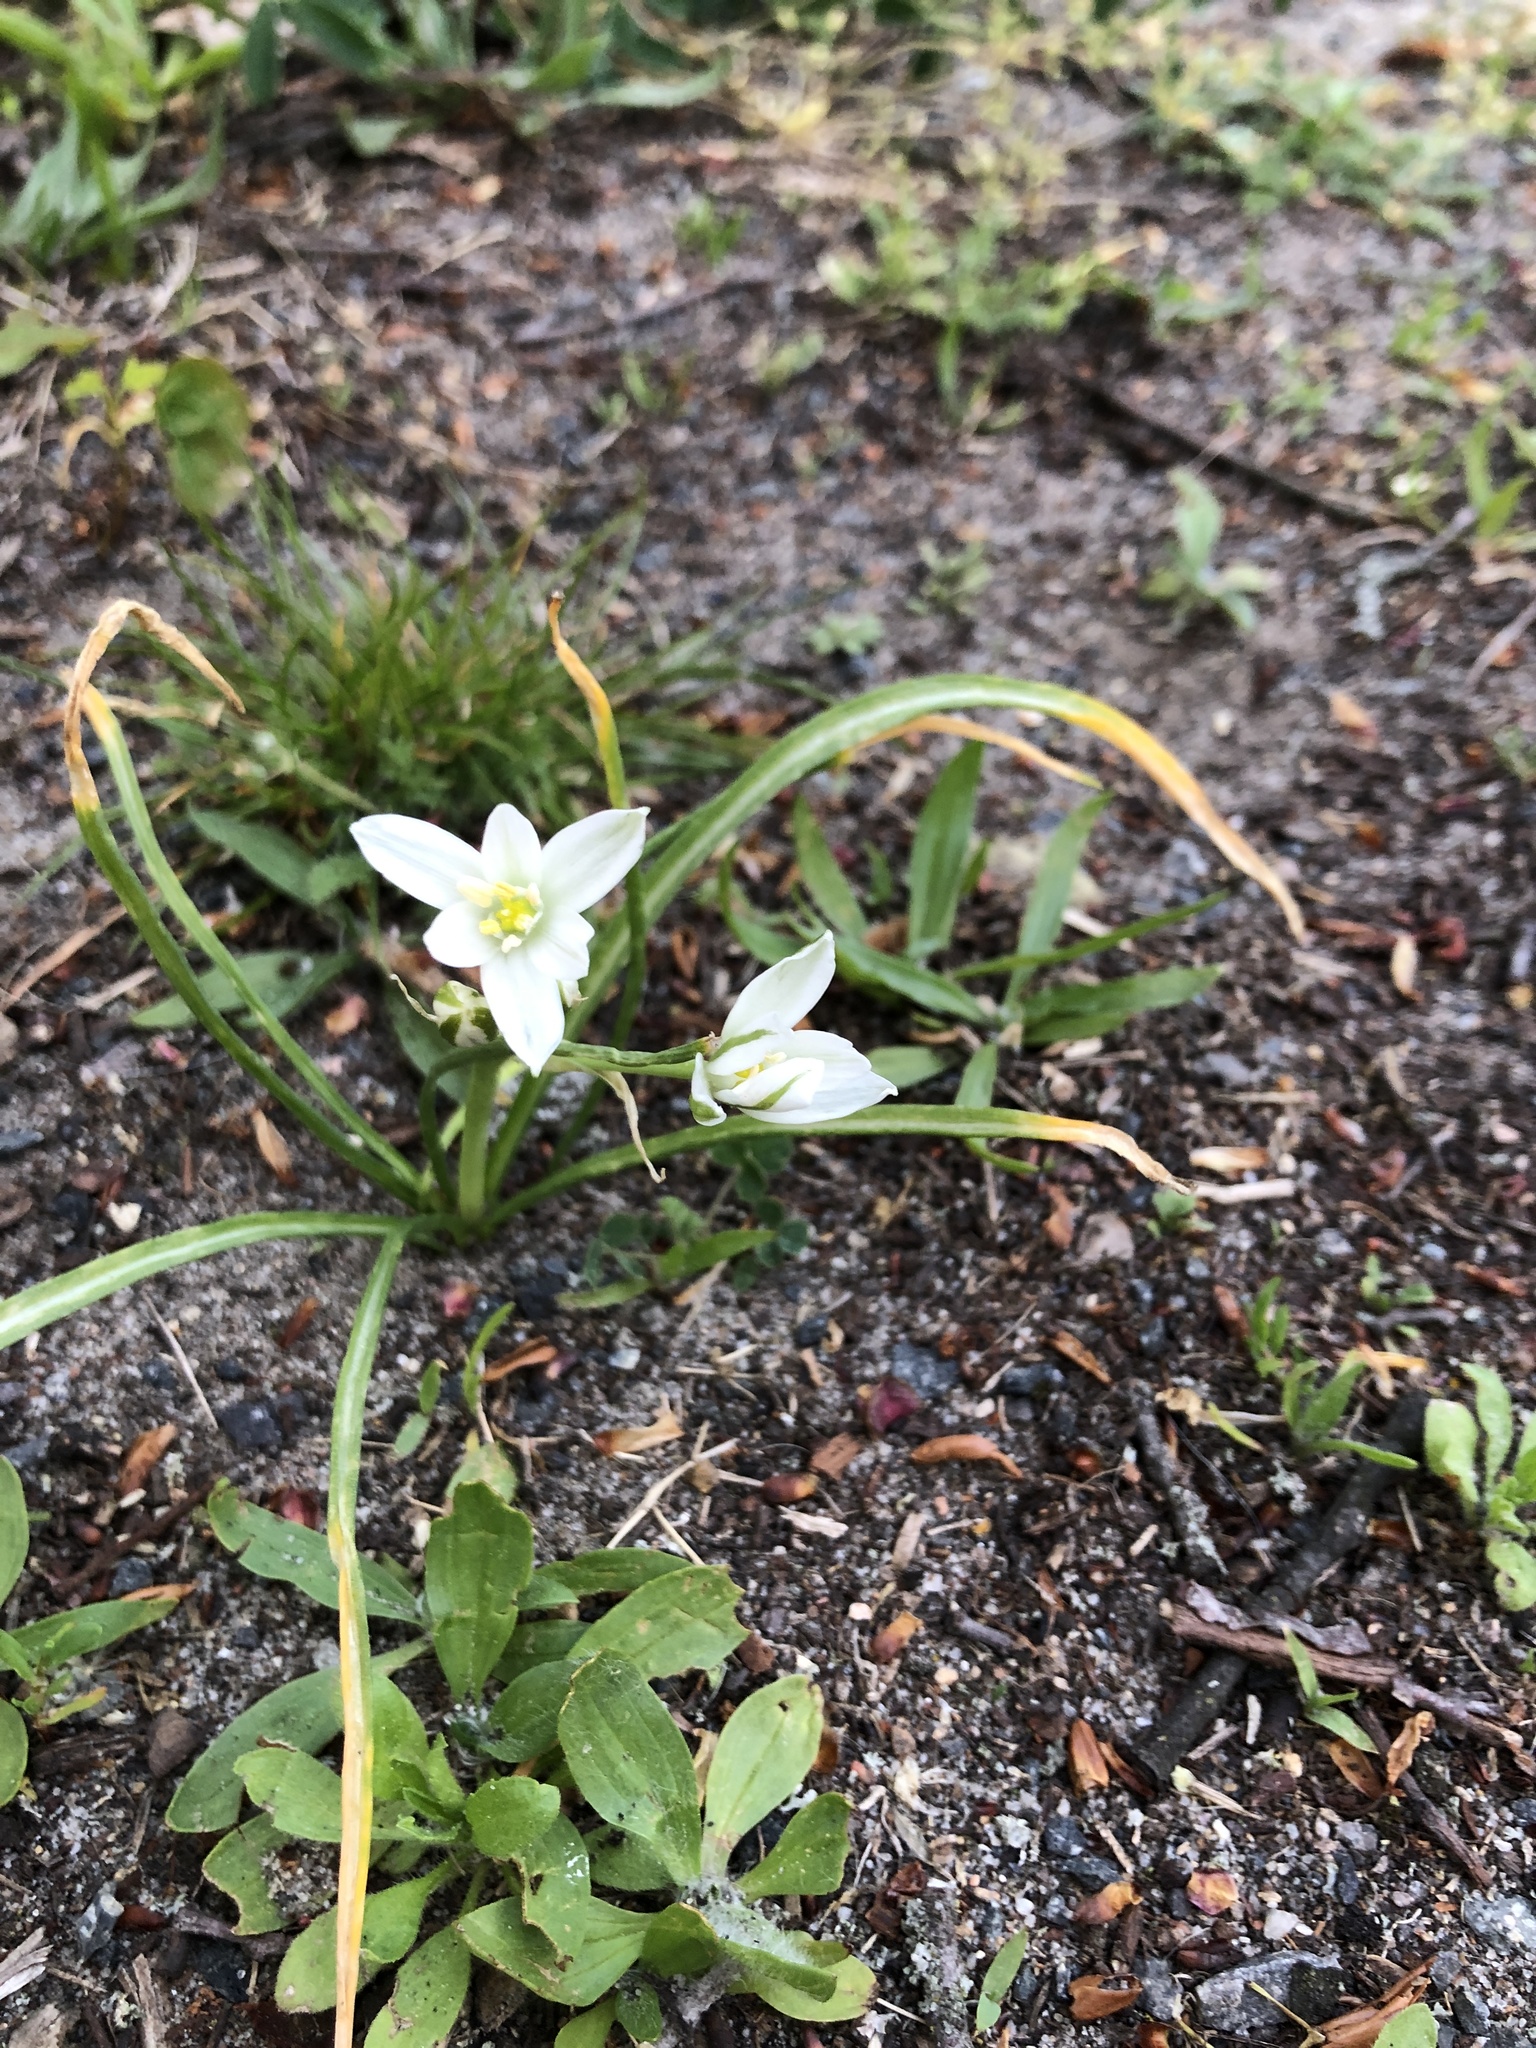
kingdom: Plantae
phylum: Tracheophyta
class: Liliopsida
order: Asparagales
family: Asparagaceae
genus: Ornithogalum
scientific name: Ornithogalum umbellatum
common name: Garden star-of-bethlehem
